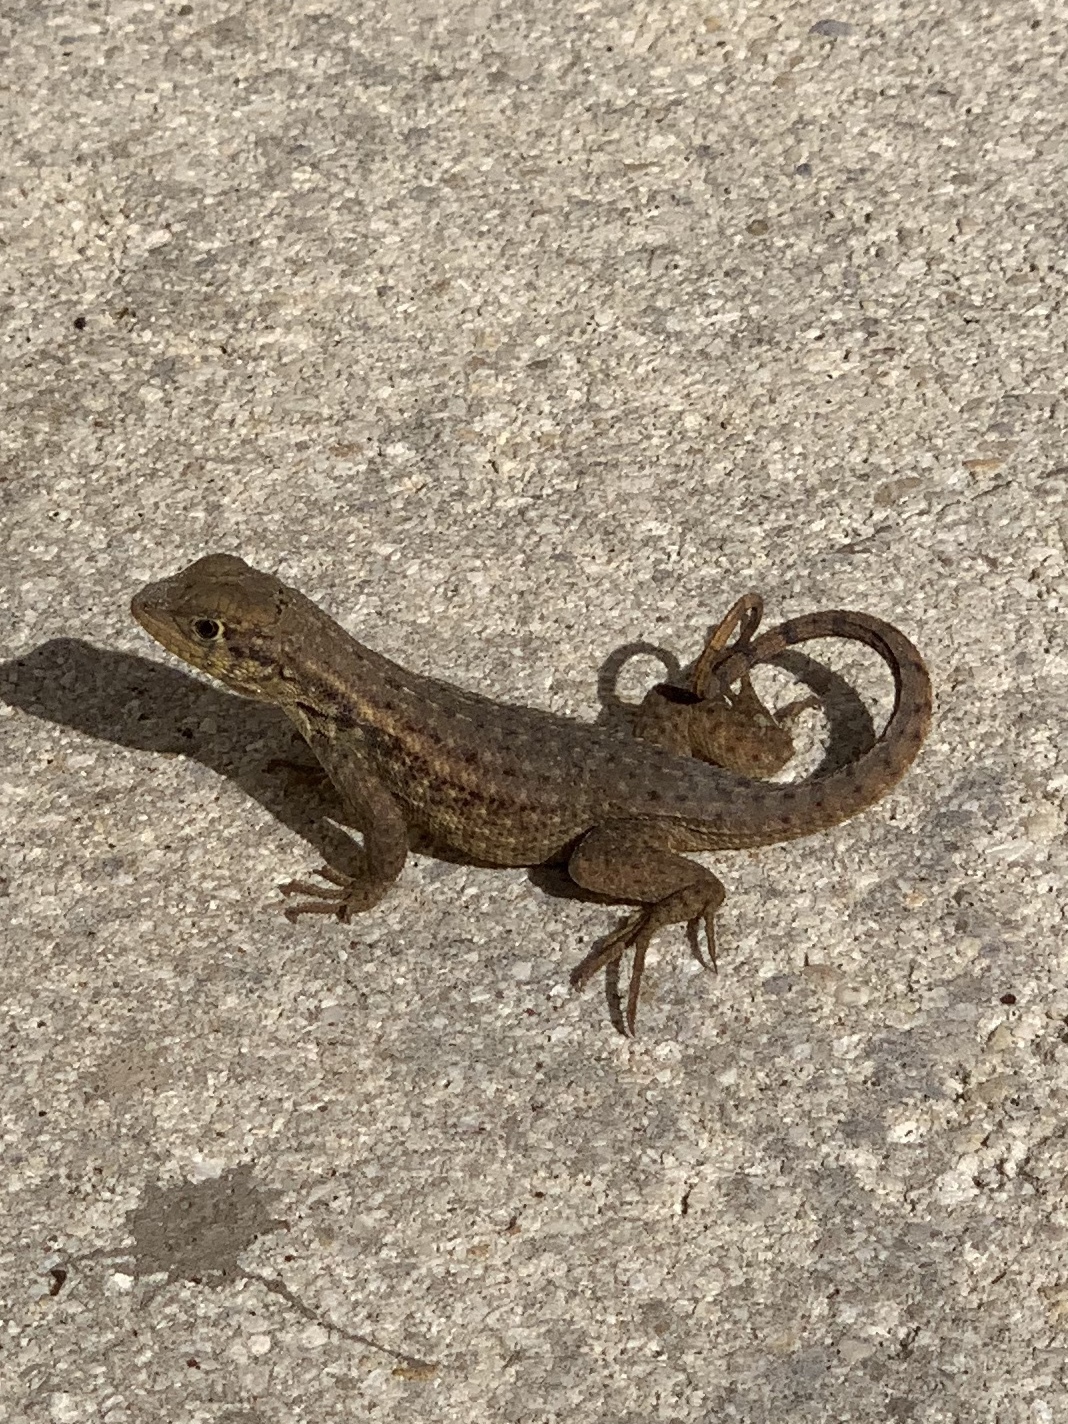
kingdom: Animalia
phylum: Chordata
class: Squamata
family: Leiocephalidae
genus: Leiocephalus
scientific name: Leiocephalus carinatus
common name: Northern curly-tailed lizard
